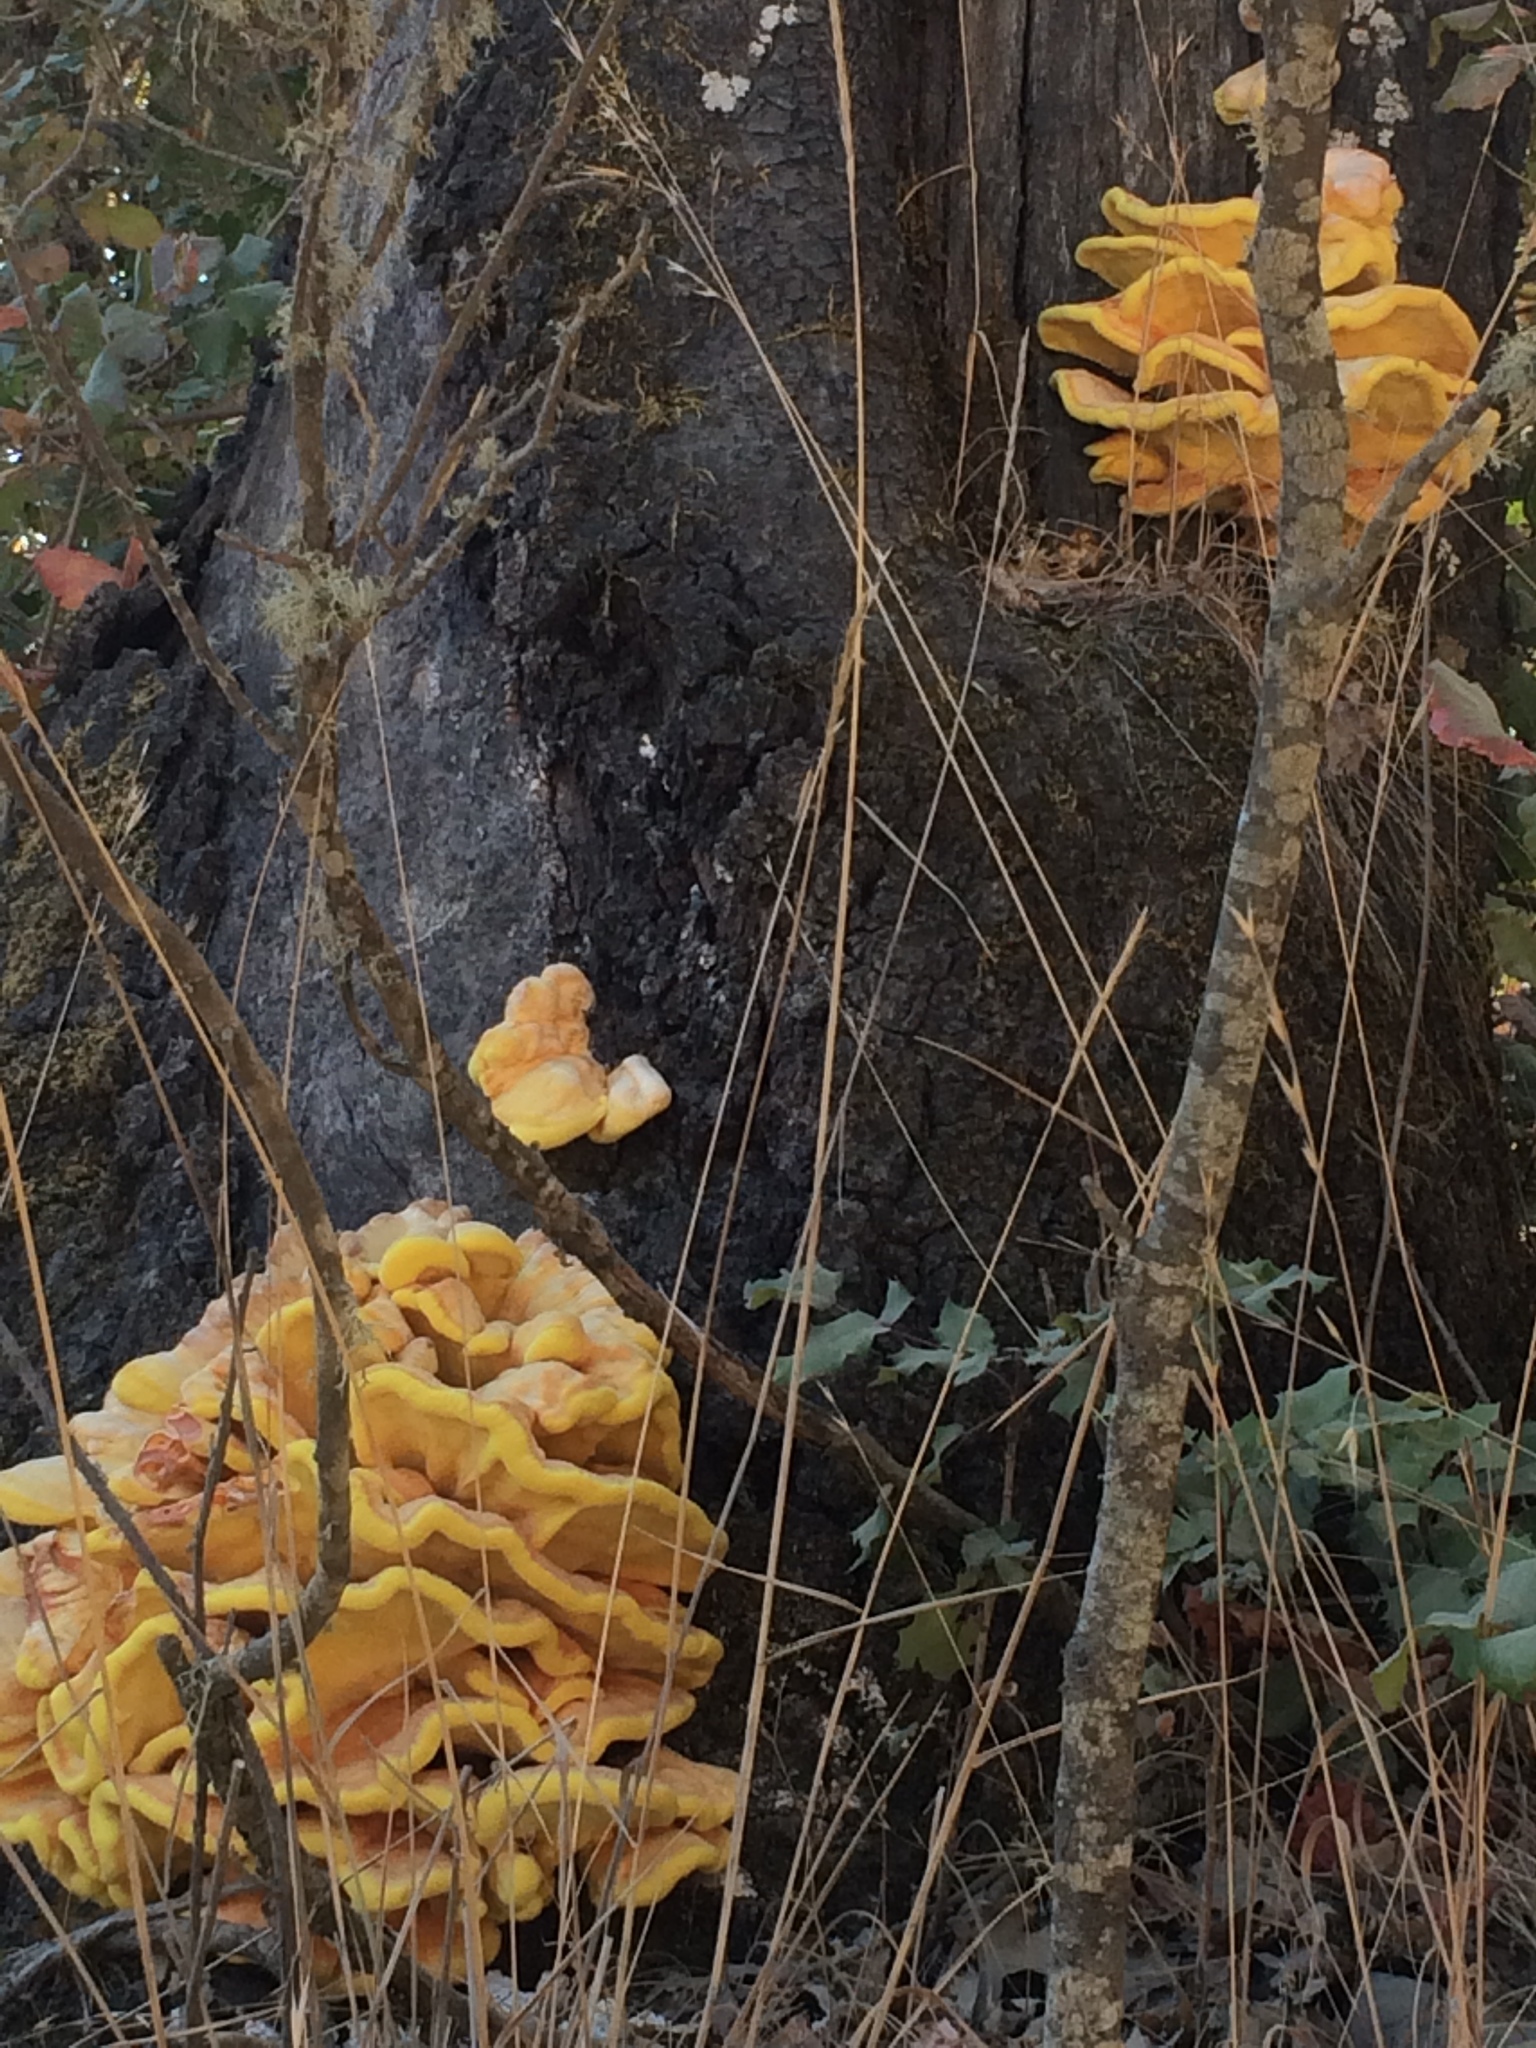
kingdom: Fungi
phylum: Basidiomycota
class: Agaricomycetes
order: Polyporales
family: Laetiporaceae
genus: Laetiporus
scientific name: Laetiporus gilbertsonii
